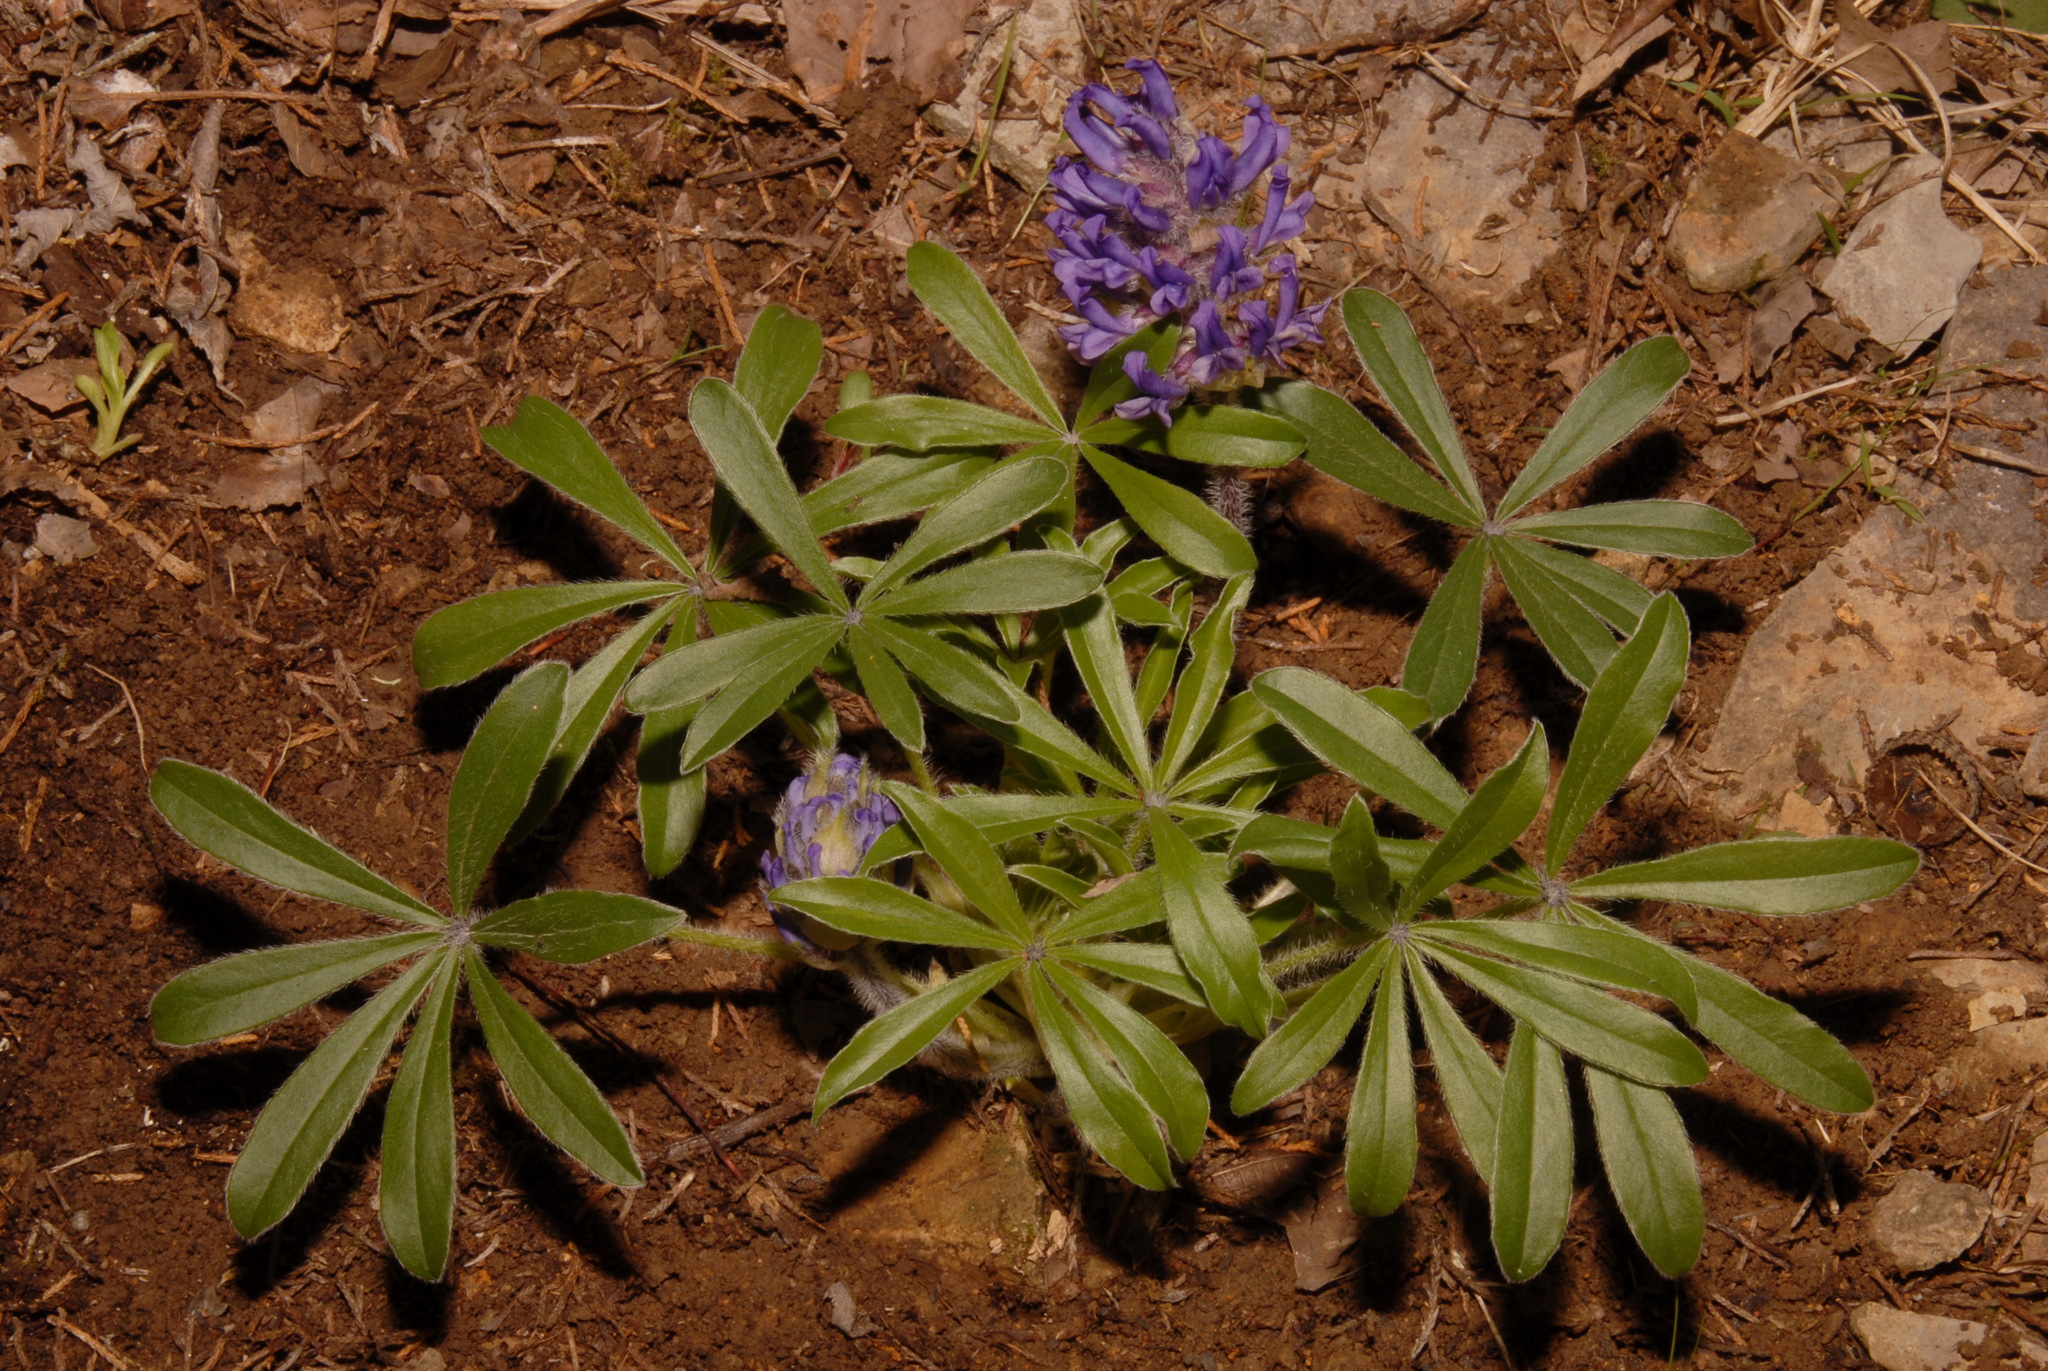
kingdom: Plantae
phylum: Tracheophyta
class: Magnoliopsida
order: Fabales
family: Fabaceae
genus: Pediomelum
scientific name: Pediomelum subacaule
